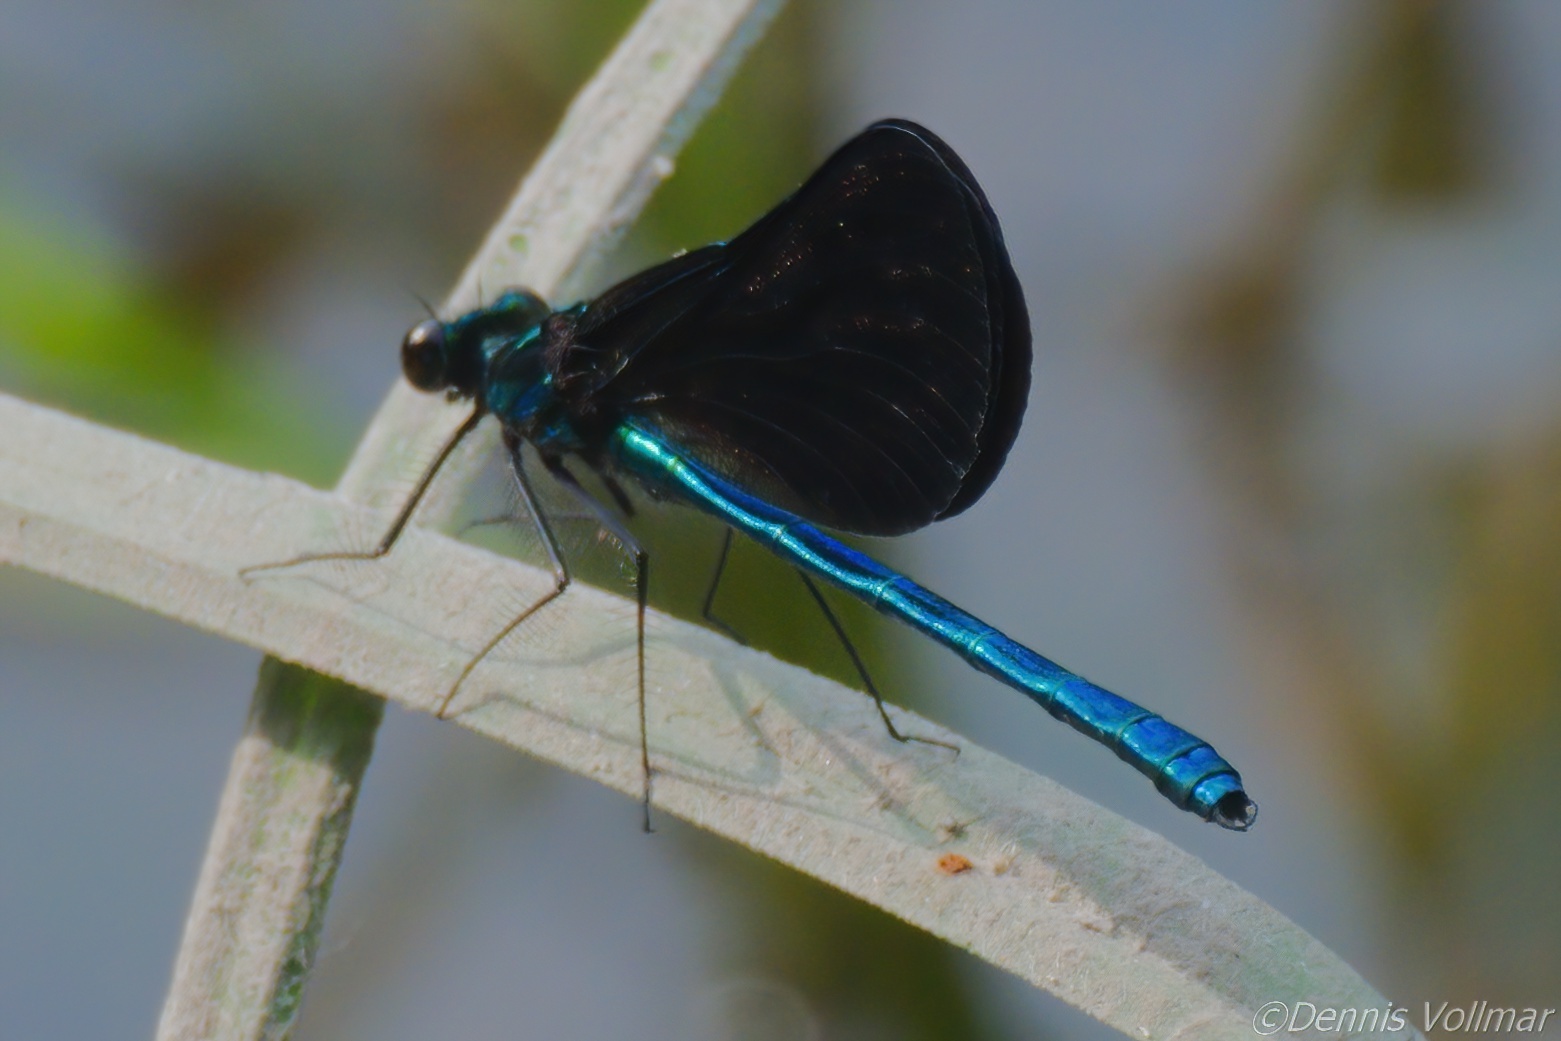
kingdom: Animalia
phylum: Arthropoda
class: Insecta
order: Odonata
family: Calopterygidae
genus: Calopteryx
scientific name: Calopteryx maculata
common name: Ebony jewelwing
